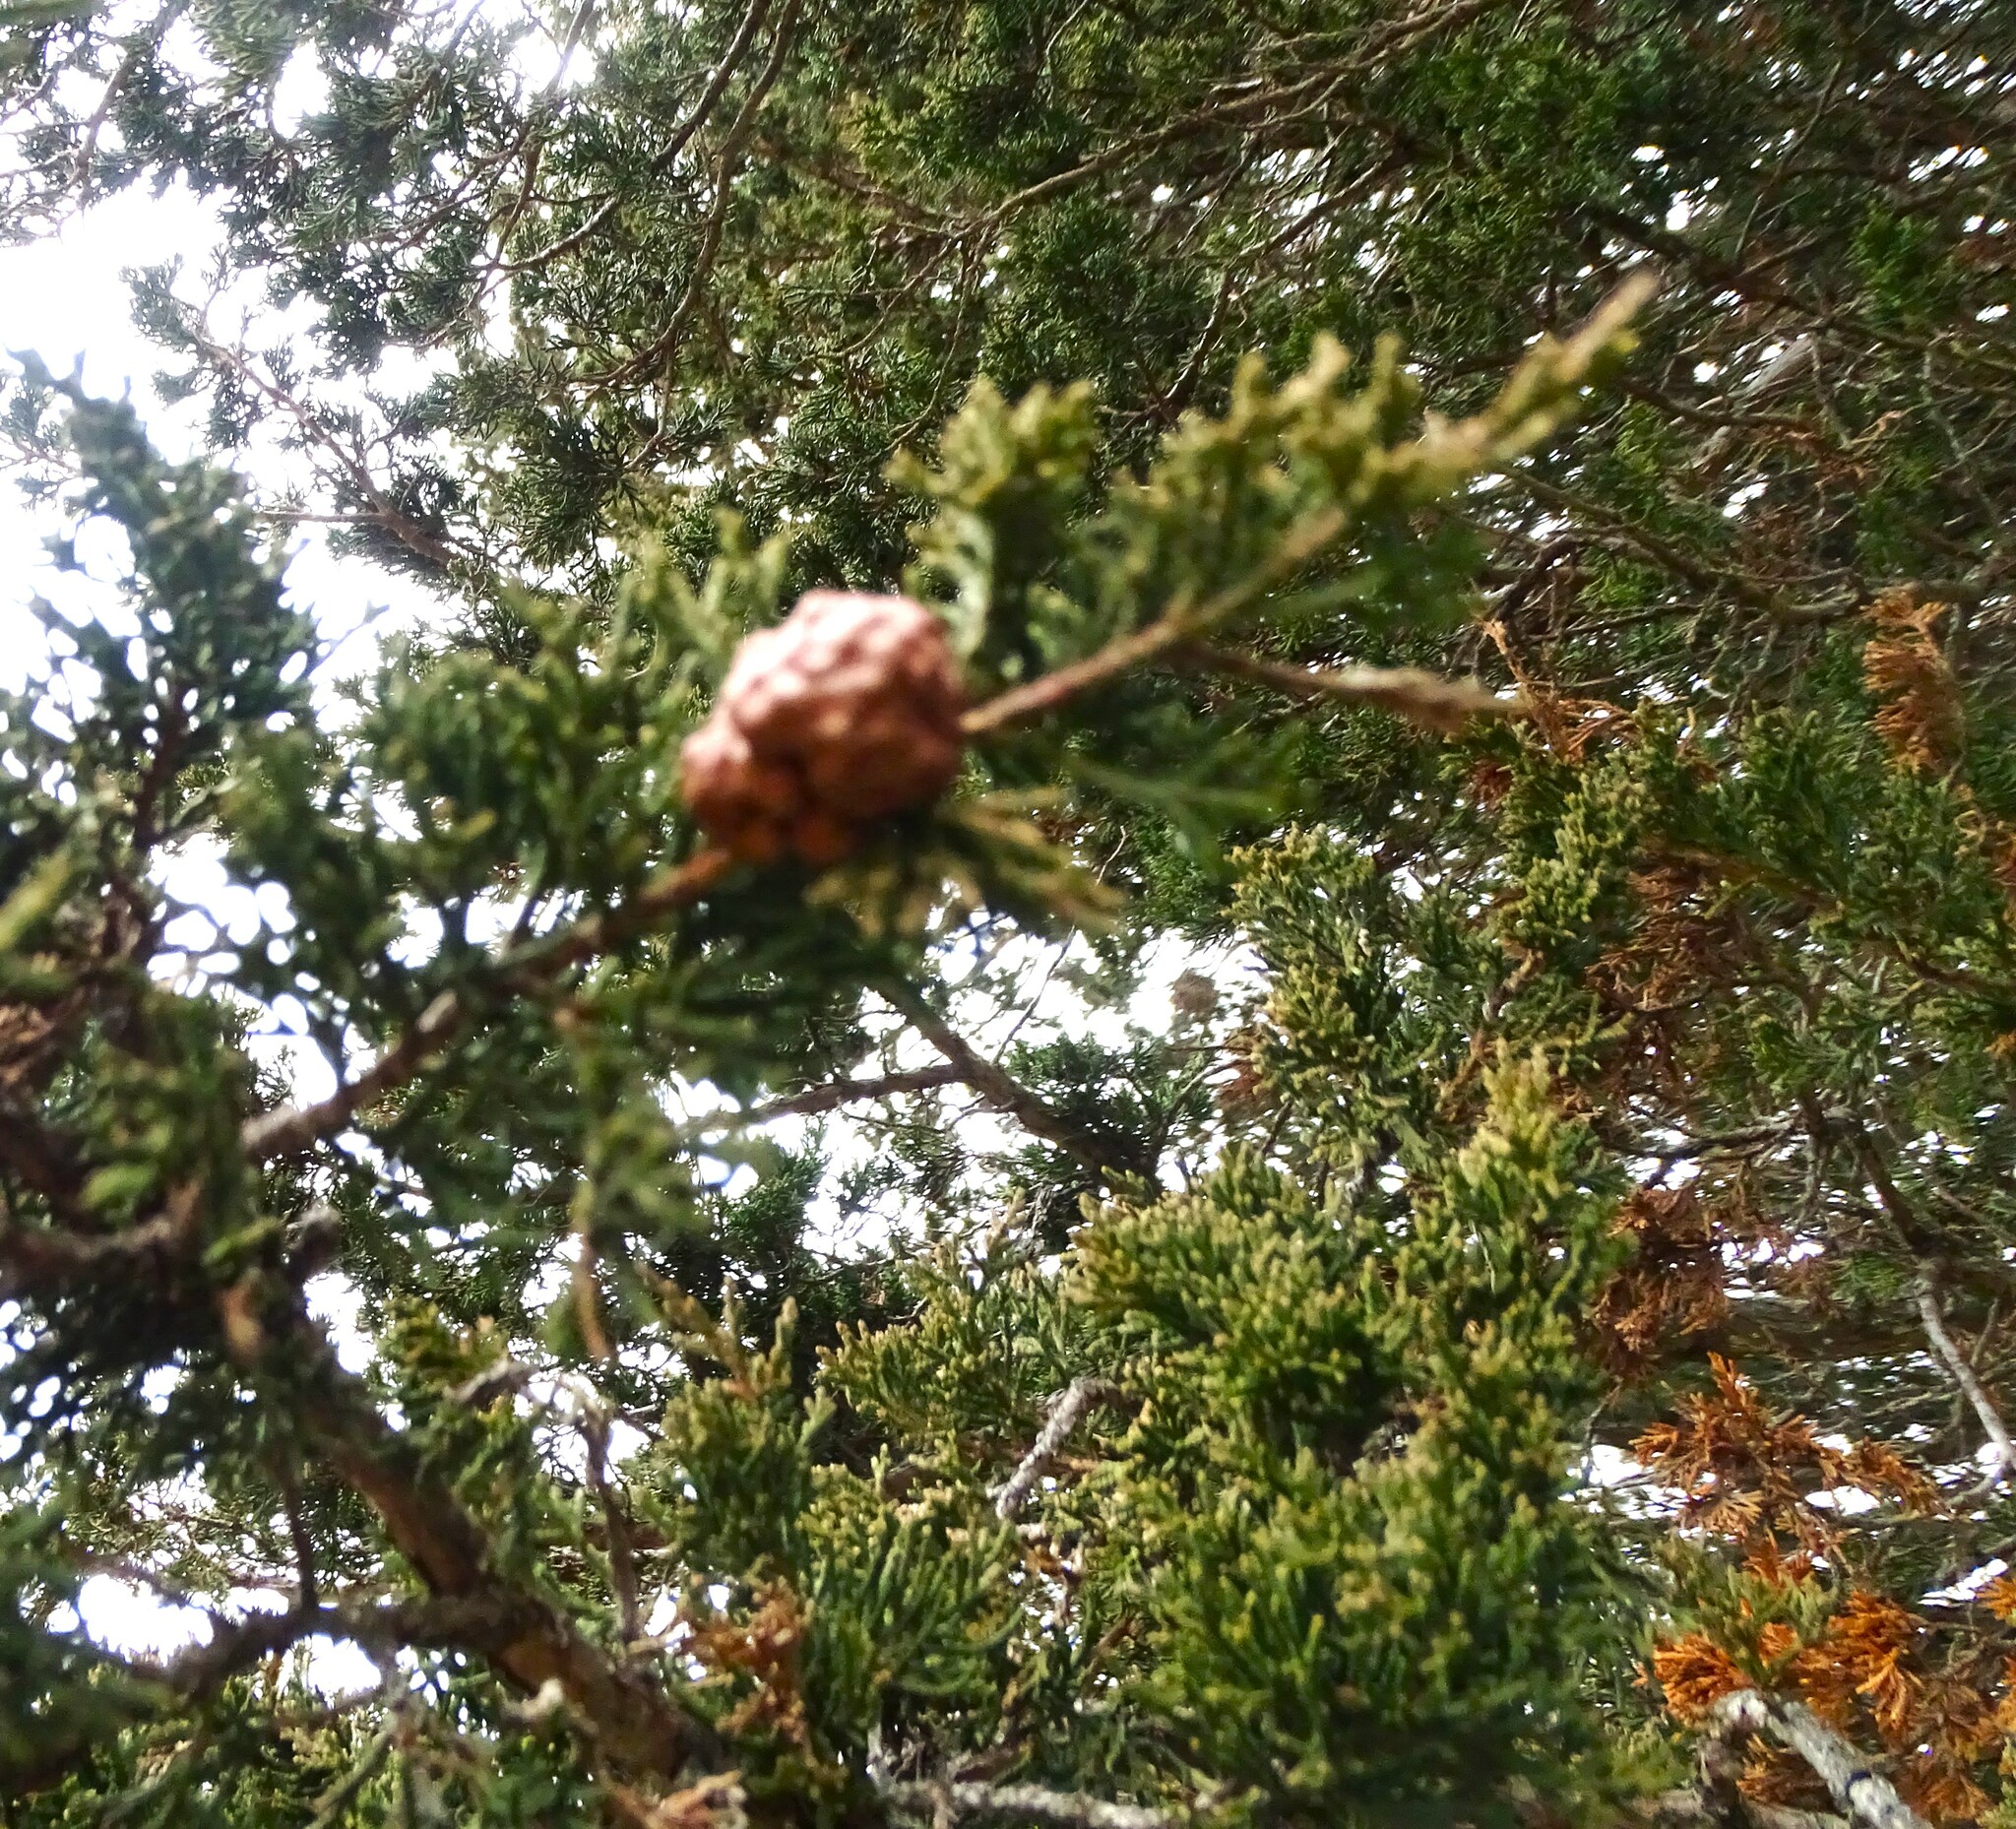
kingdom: Fungi
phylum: Basidiomycota
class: Pucciniomycetes
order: Pucciniales
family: Gymnosporangiaceae
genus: Gymnosporangium
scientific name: Gymnosporangium juniperi-virginianae
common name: Juniper-apple rust
